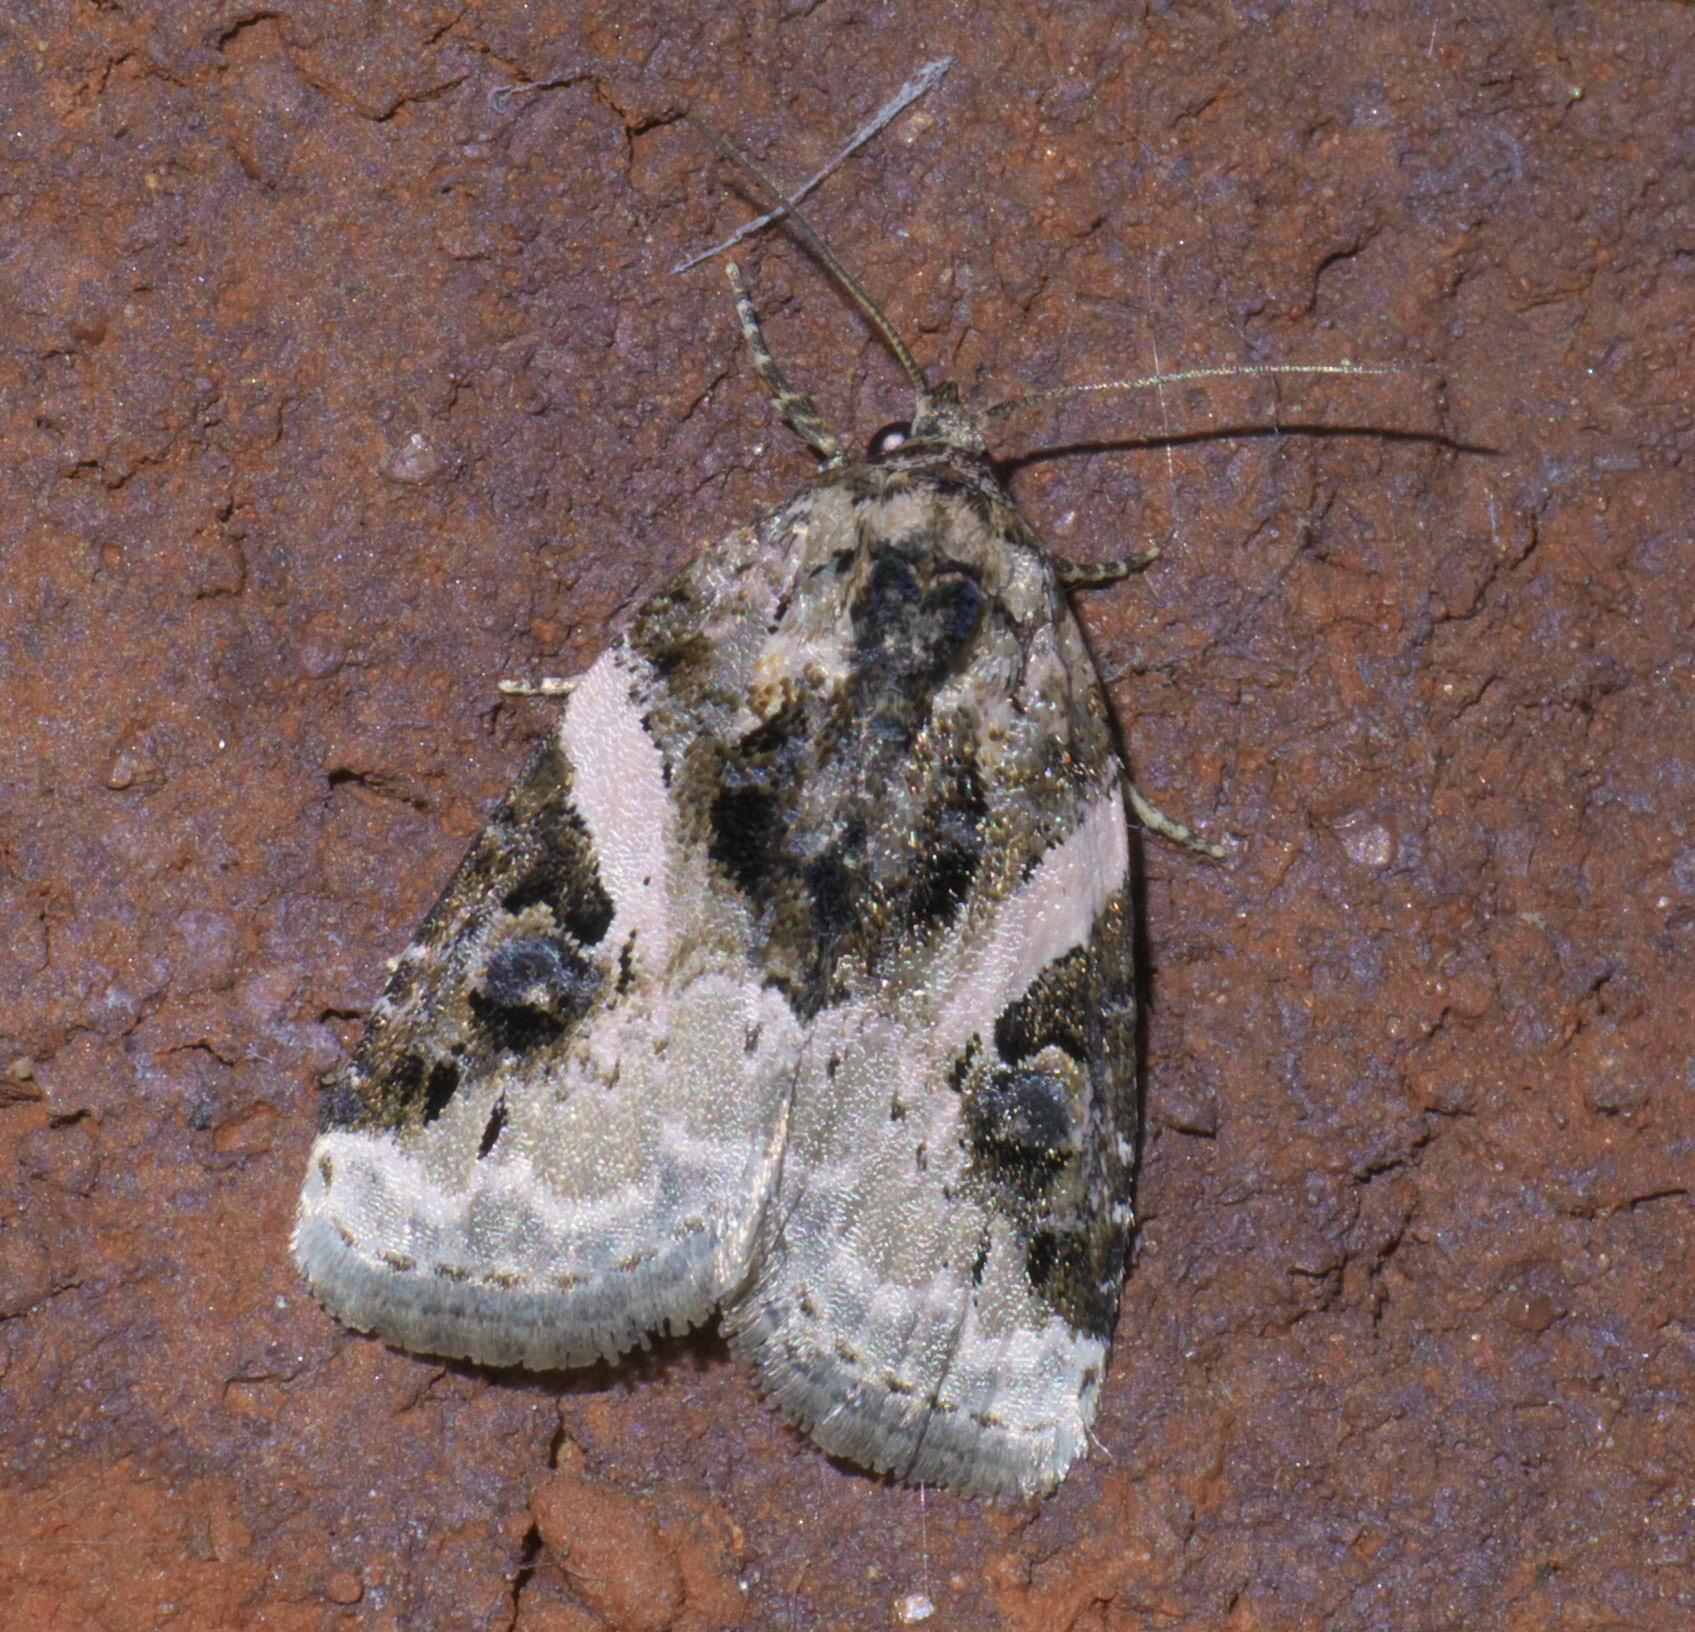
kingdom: Animalia
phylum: Arthropoda
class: Insecta
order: Lepidoptera
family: Noctuidae
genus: Pseudeustrotia
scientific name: Pseudeustrotia carneola
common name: Pink-barred lithacodia moth
